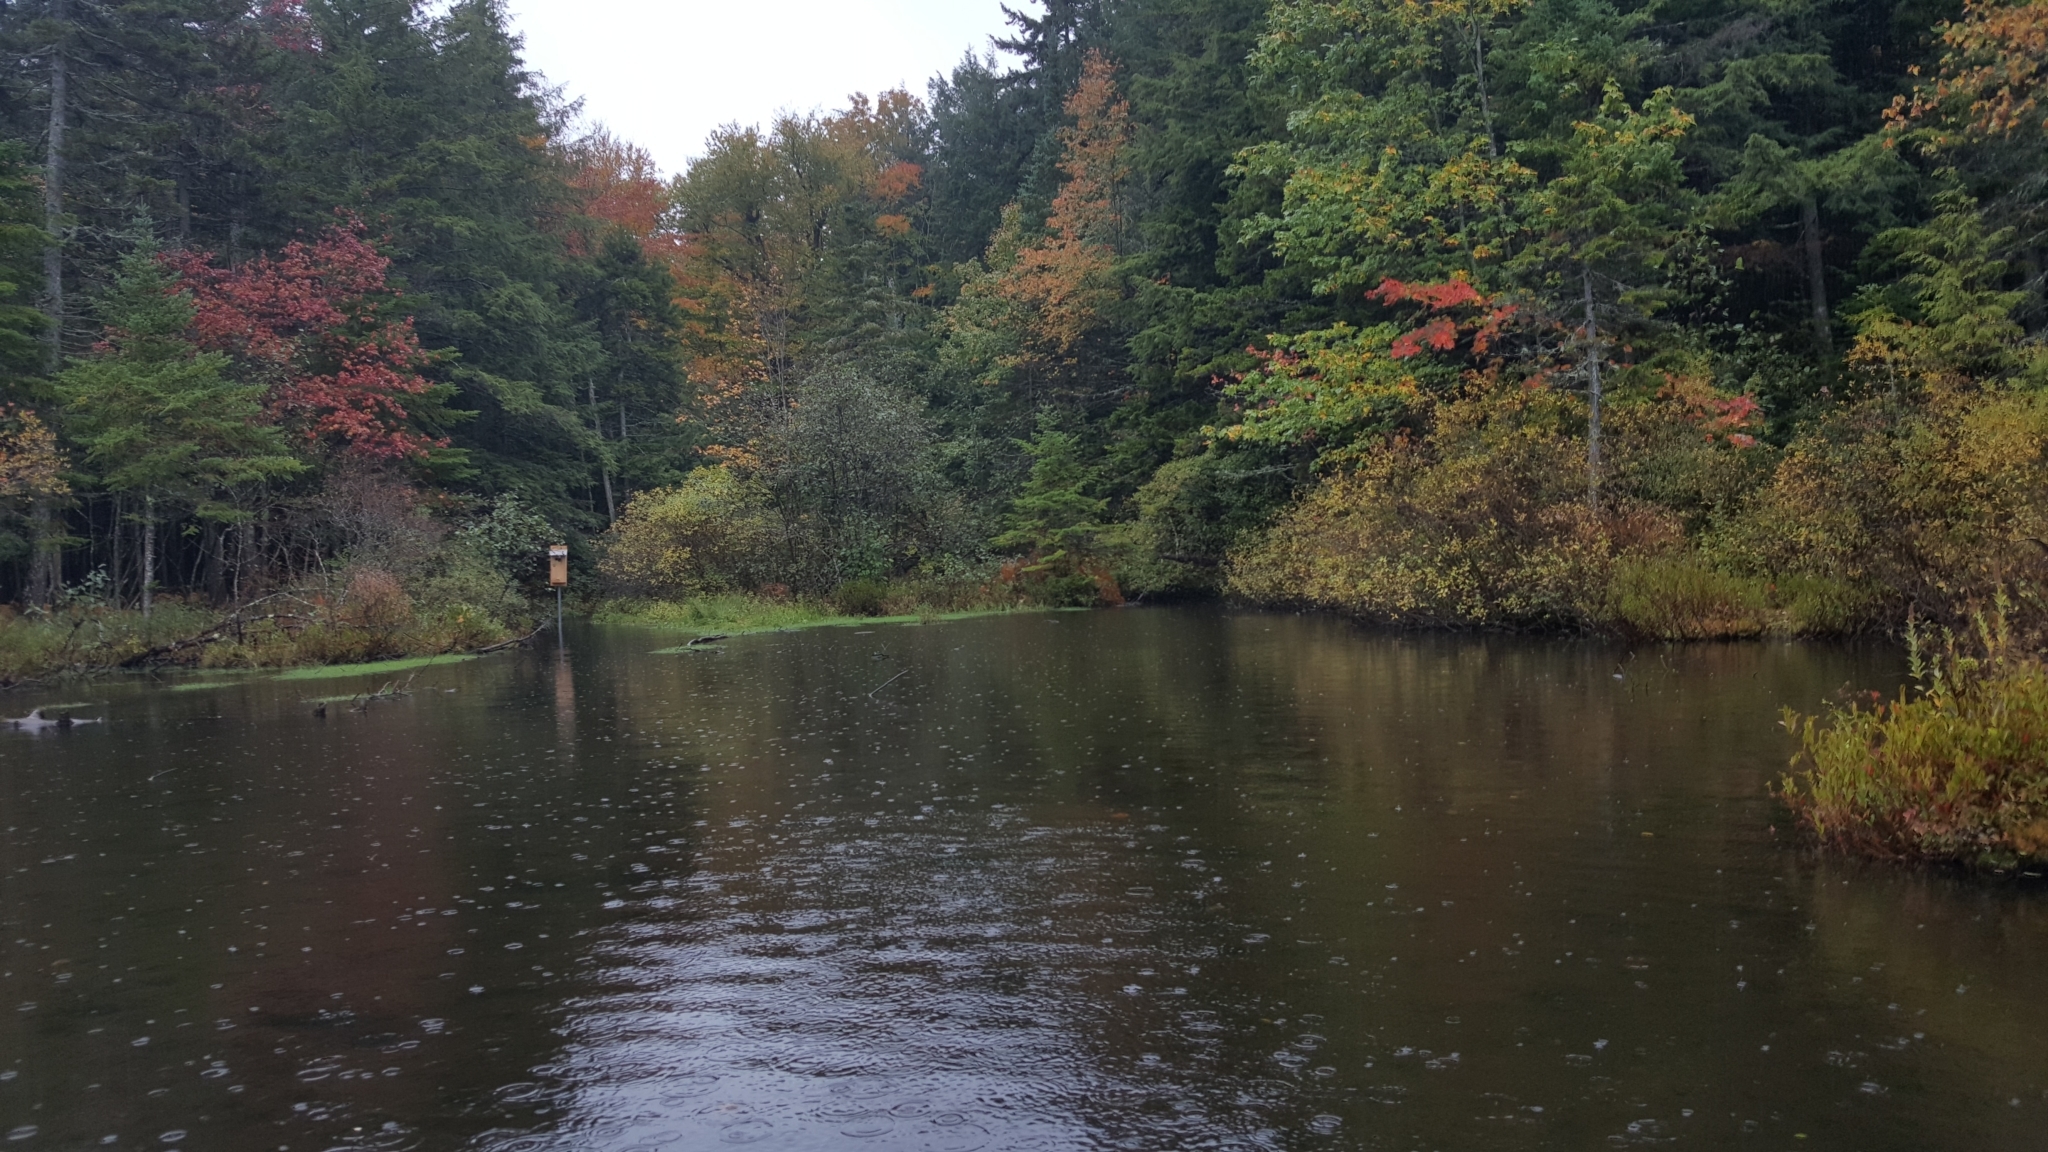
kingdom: Plantae
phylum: Tracheophyta
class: Magnoliopsida
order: Sapindales
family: Sapindaceae
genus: Acer
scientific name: Acer rubrum
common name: Red maple
